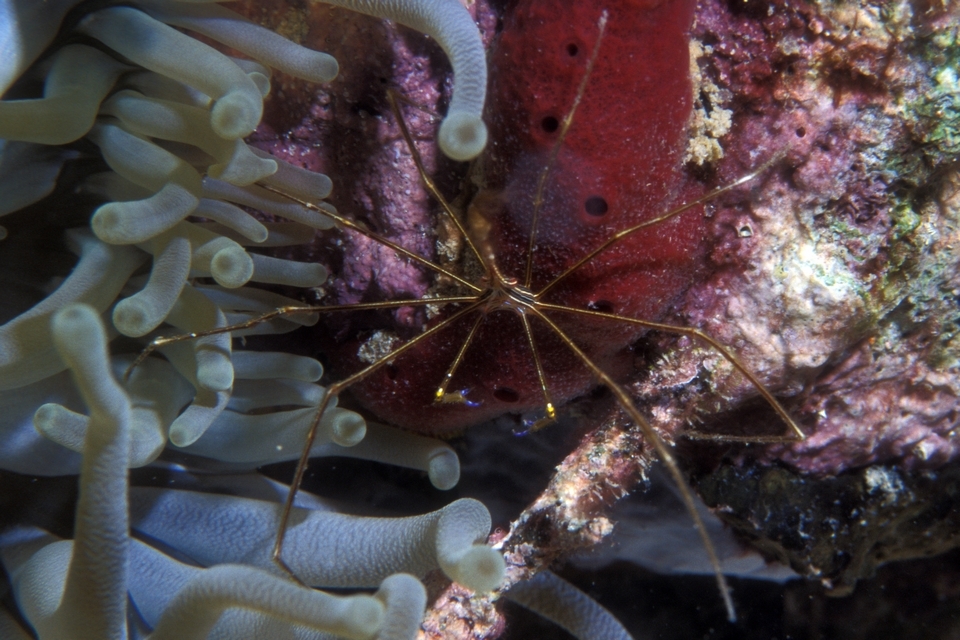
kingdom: Animalia
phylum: Arthropoda
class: Malacostraca
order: Decapoda
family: Inachoididae
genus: Stenorhynchus
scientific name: Stenorhynchus seticornis
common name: Arrow crab
